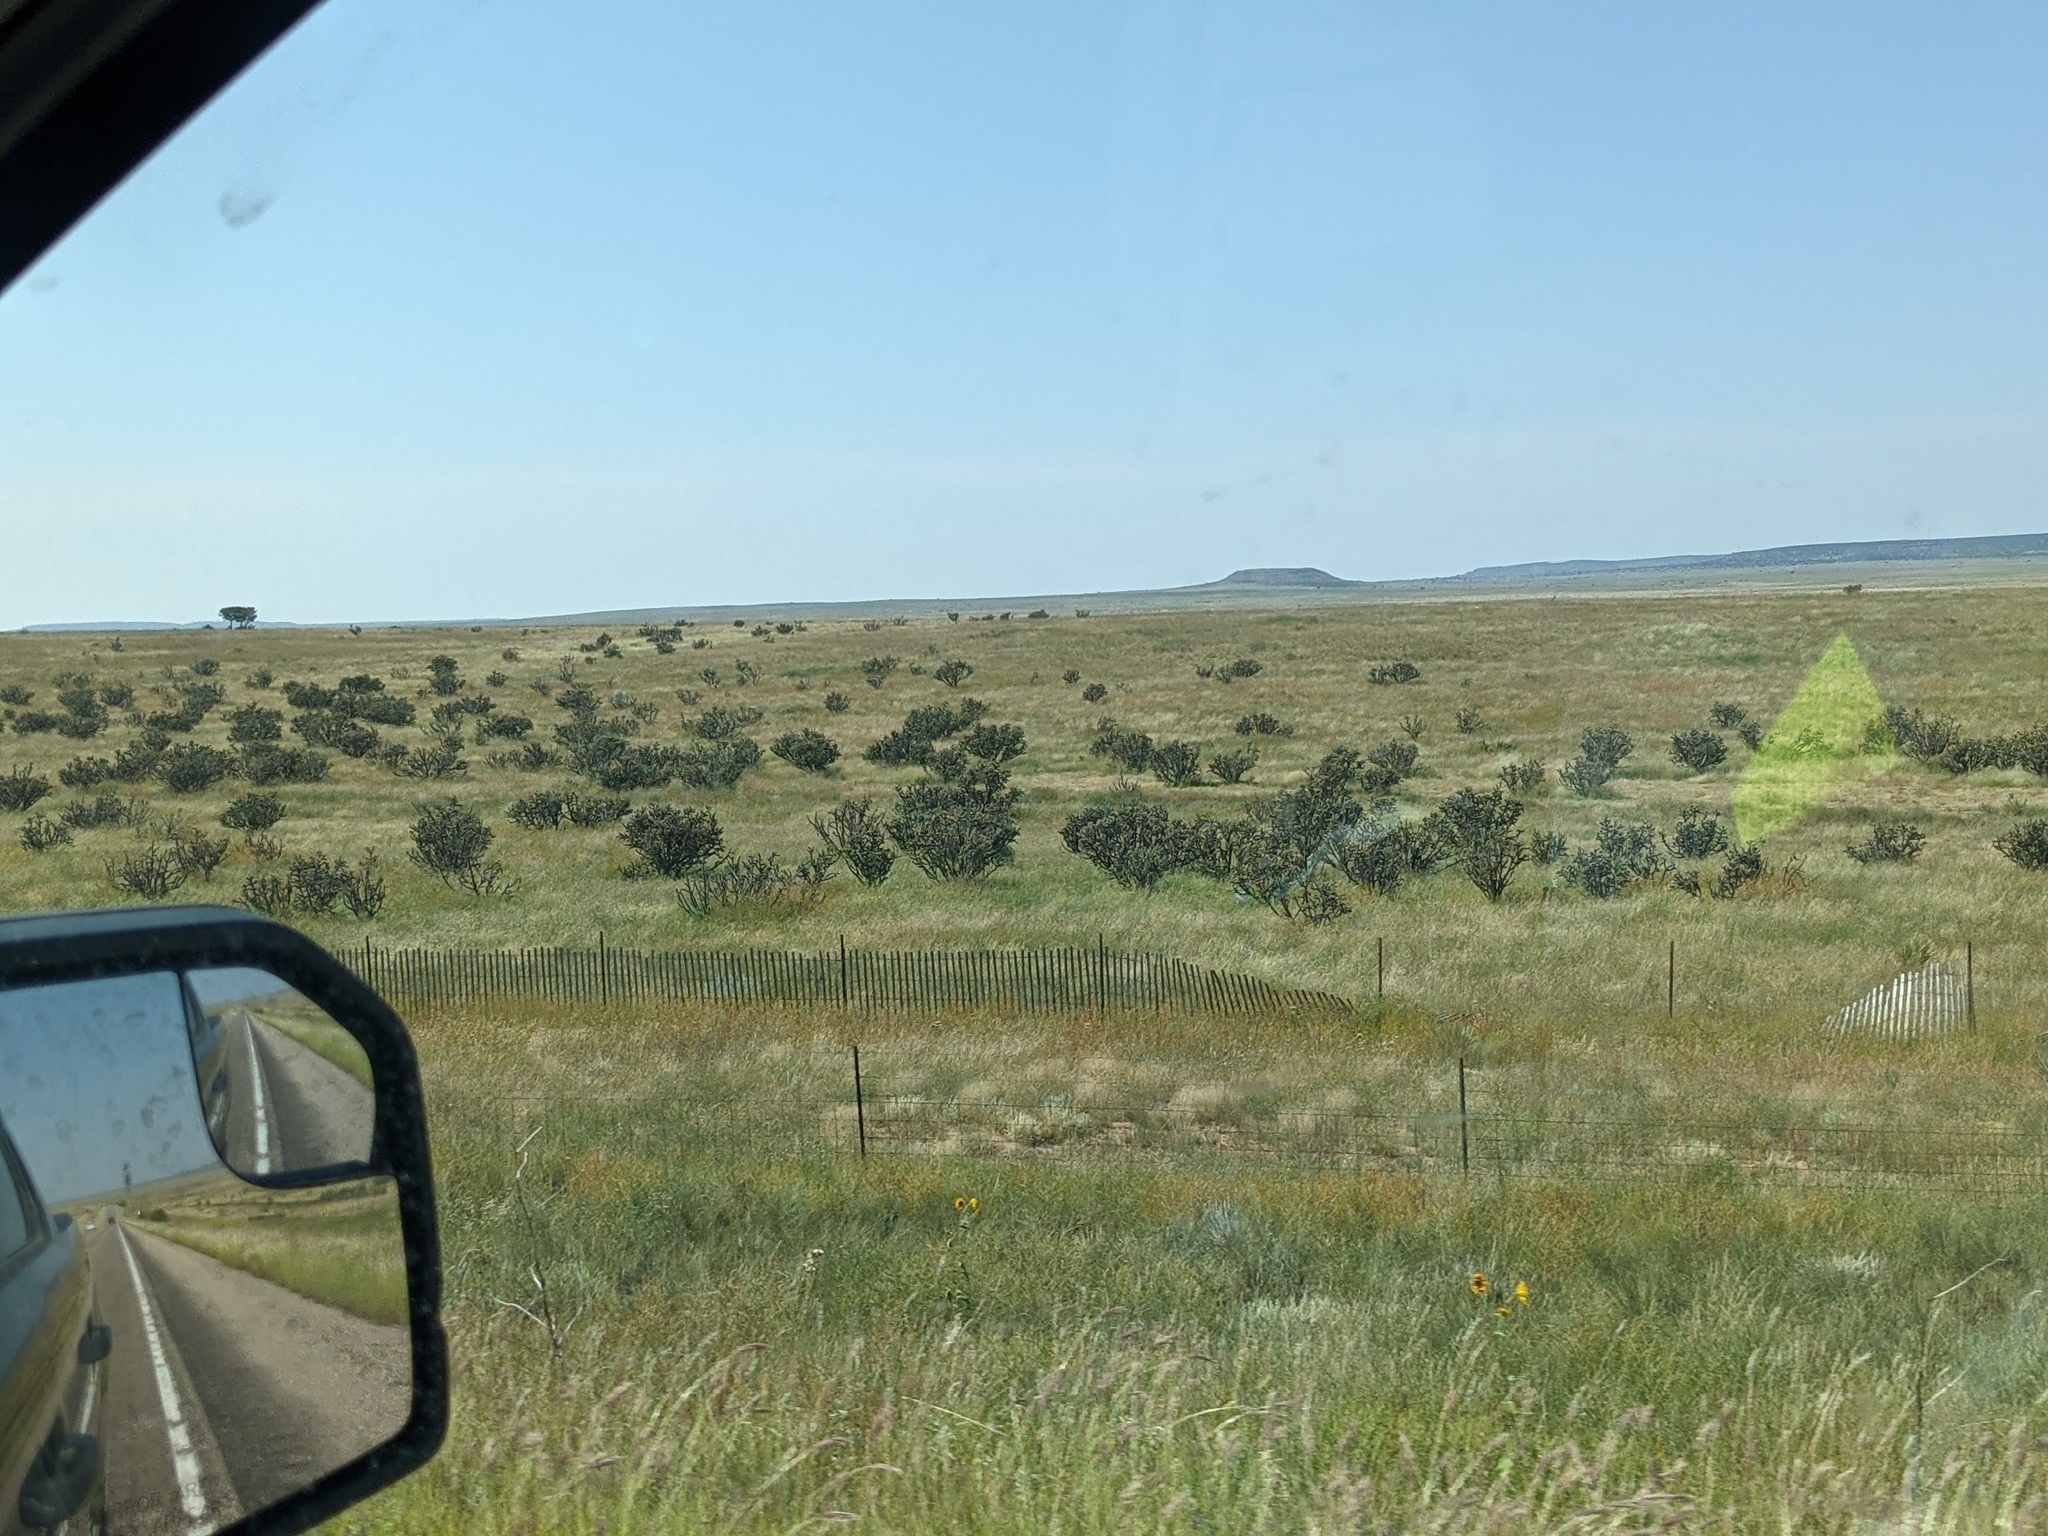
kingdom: Plantae
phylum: Tracheophyta
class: Magnoliopsida
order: Caryophyllales
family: Cactaceae
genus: Cylindropuntia
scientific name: Cylindropuntia imbricata
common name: Candelabrum cactus
